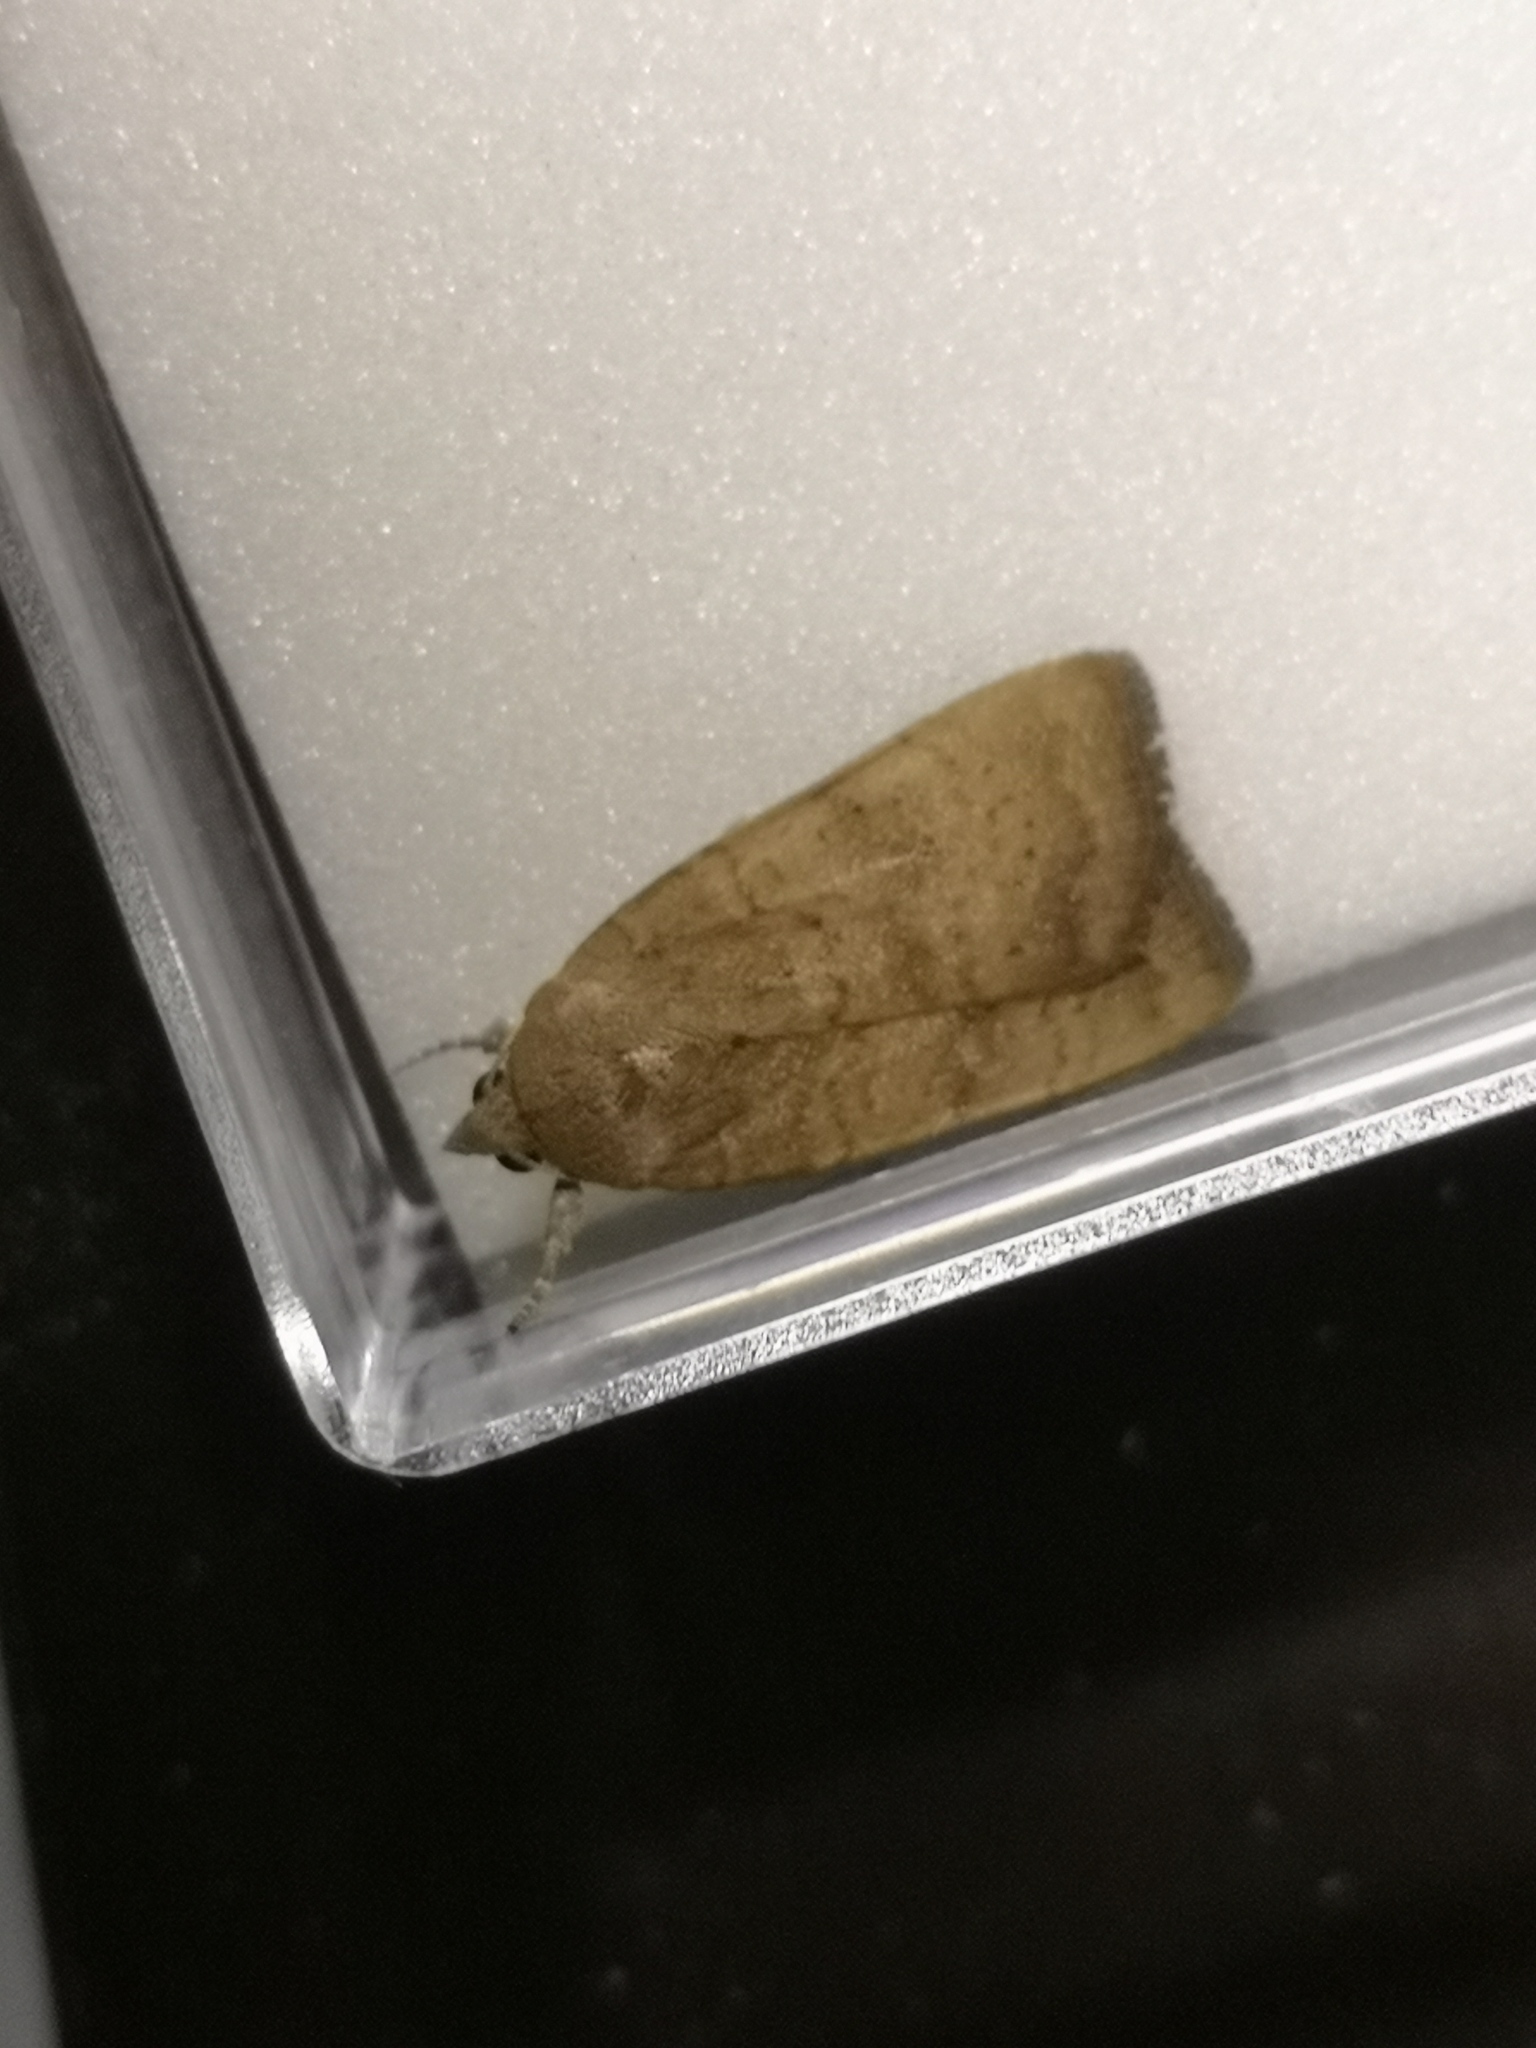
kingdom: Animalia
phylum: Arthropoda
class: Insecta
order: Lepidoptera
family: Noctuidae
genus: Noctua
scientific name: Noctua interjecta
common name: Least yellow underwing
